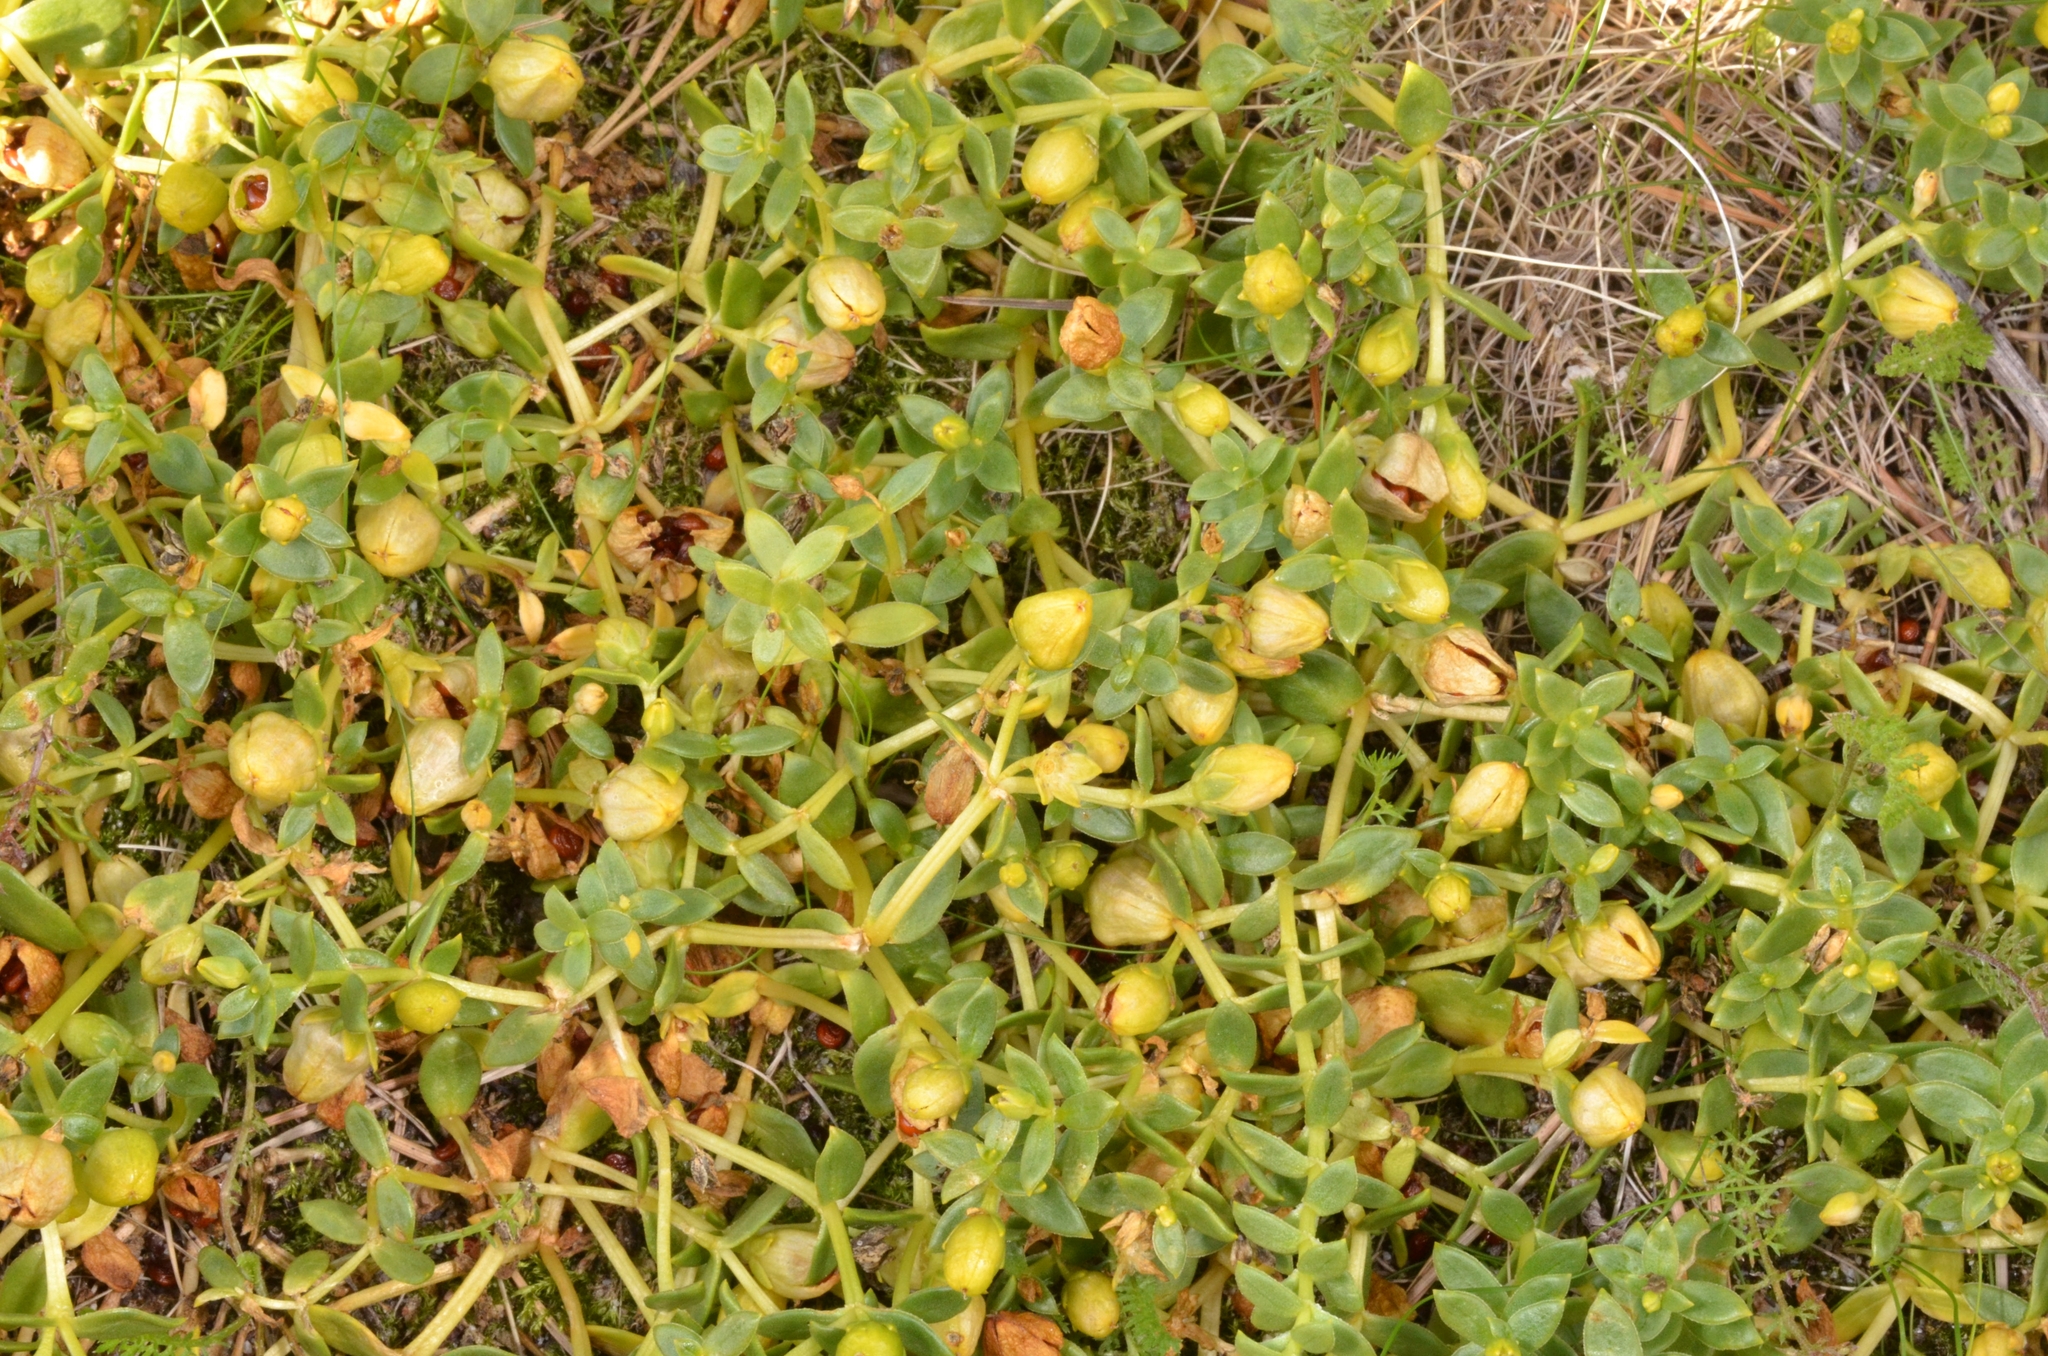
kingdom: Plantae
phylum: Tracheophyta
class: Magnoliopsida
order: Caryophyllales
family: Caryophyllaceae
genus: Honckenya
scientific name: Honckenya peploides
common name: Sea sandwort
